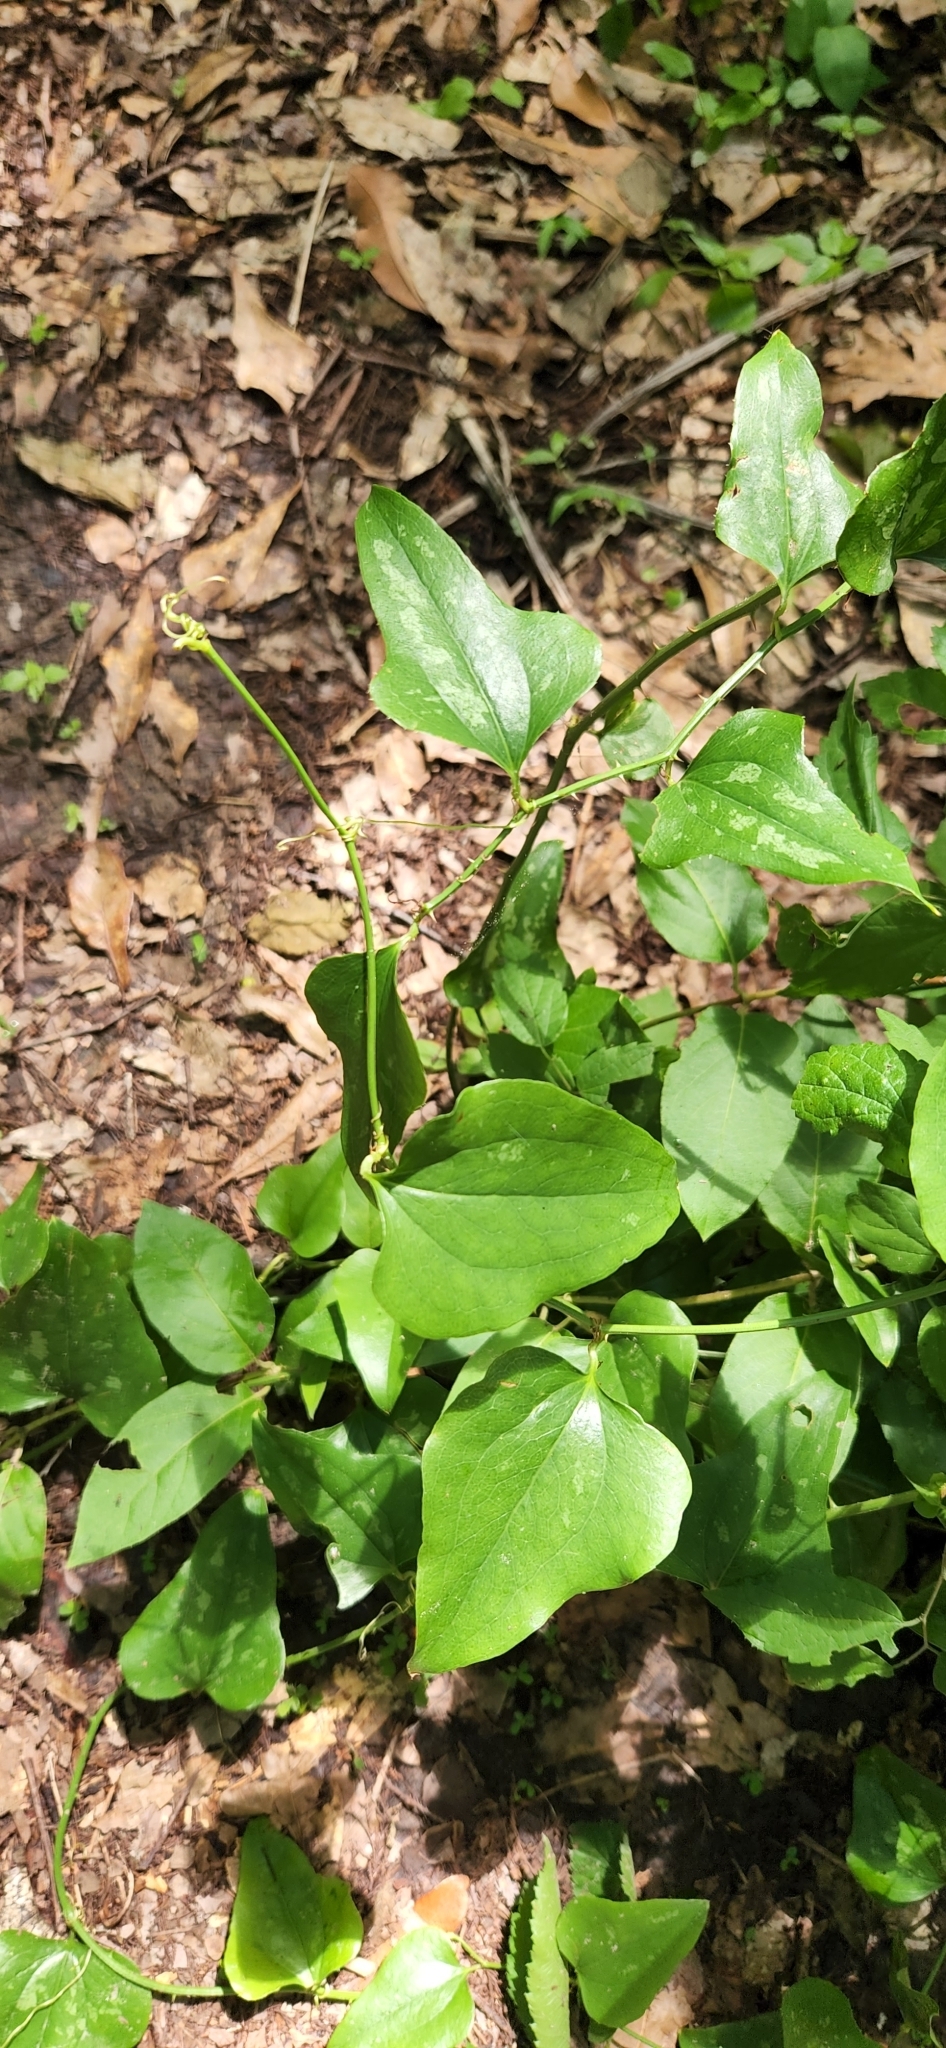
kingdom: Plantae
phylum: Tracheophyta
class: Liliopsida
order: Liliales
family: Smilacaceae
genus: Smilax
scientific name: Smilax bona-nox
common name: Catbrier
